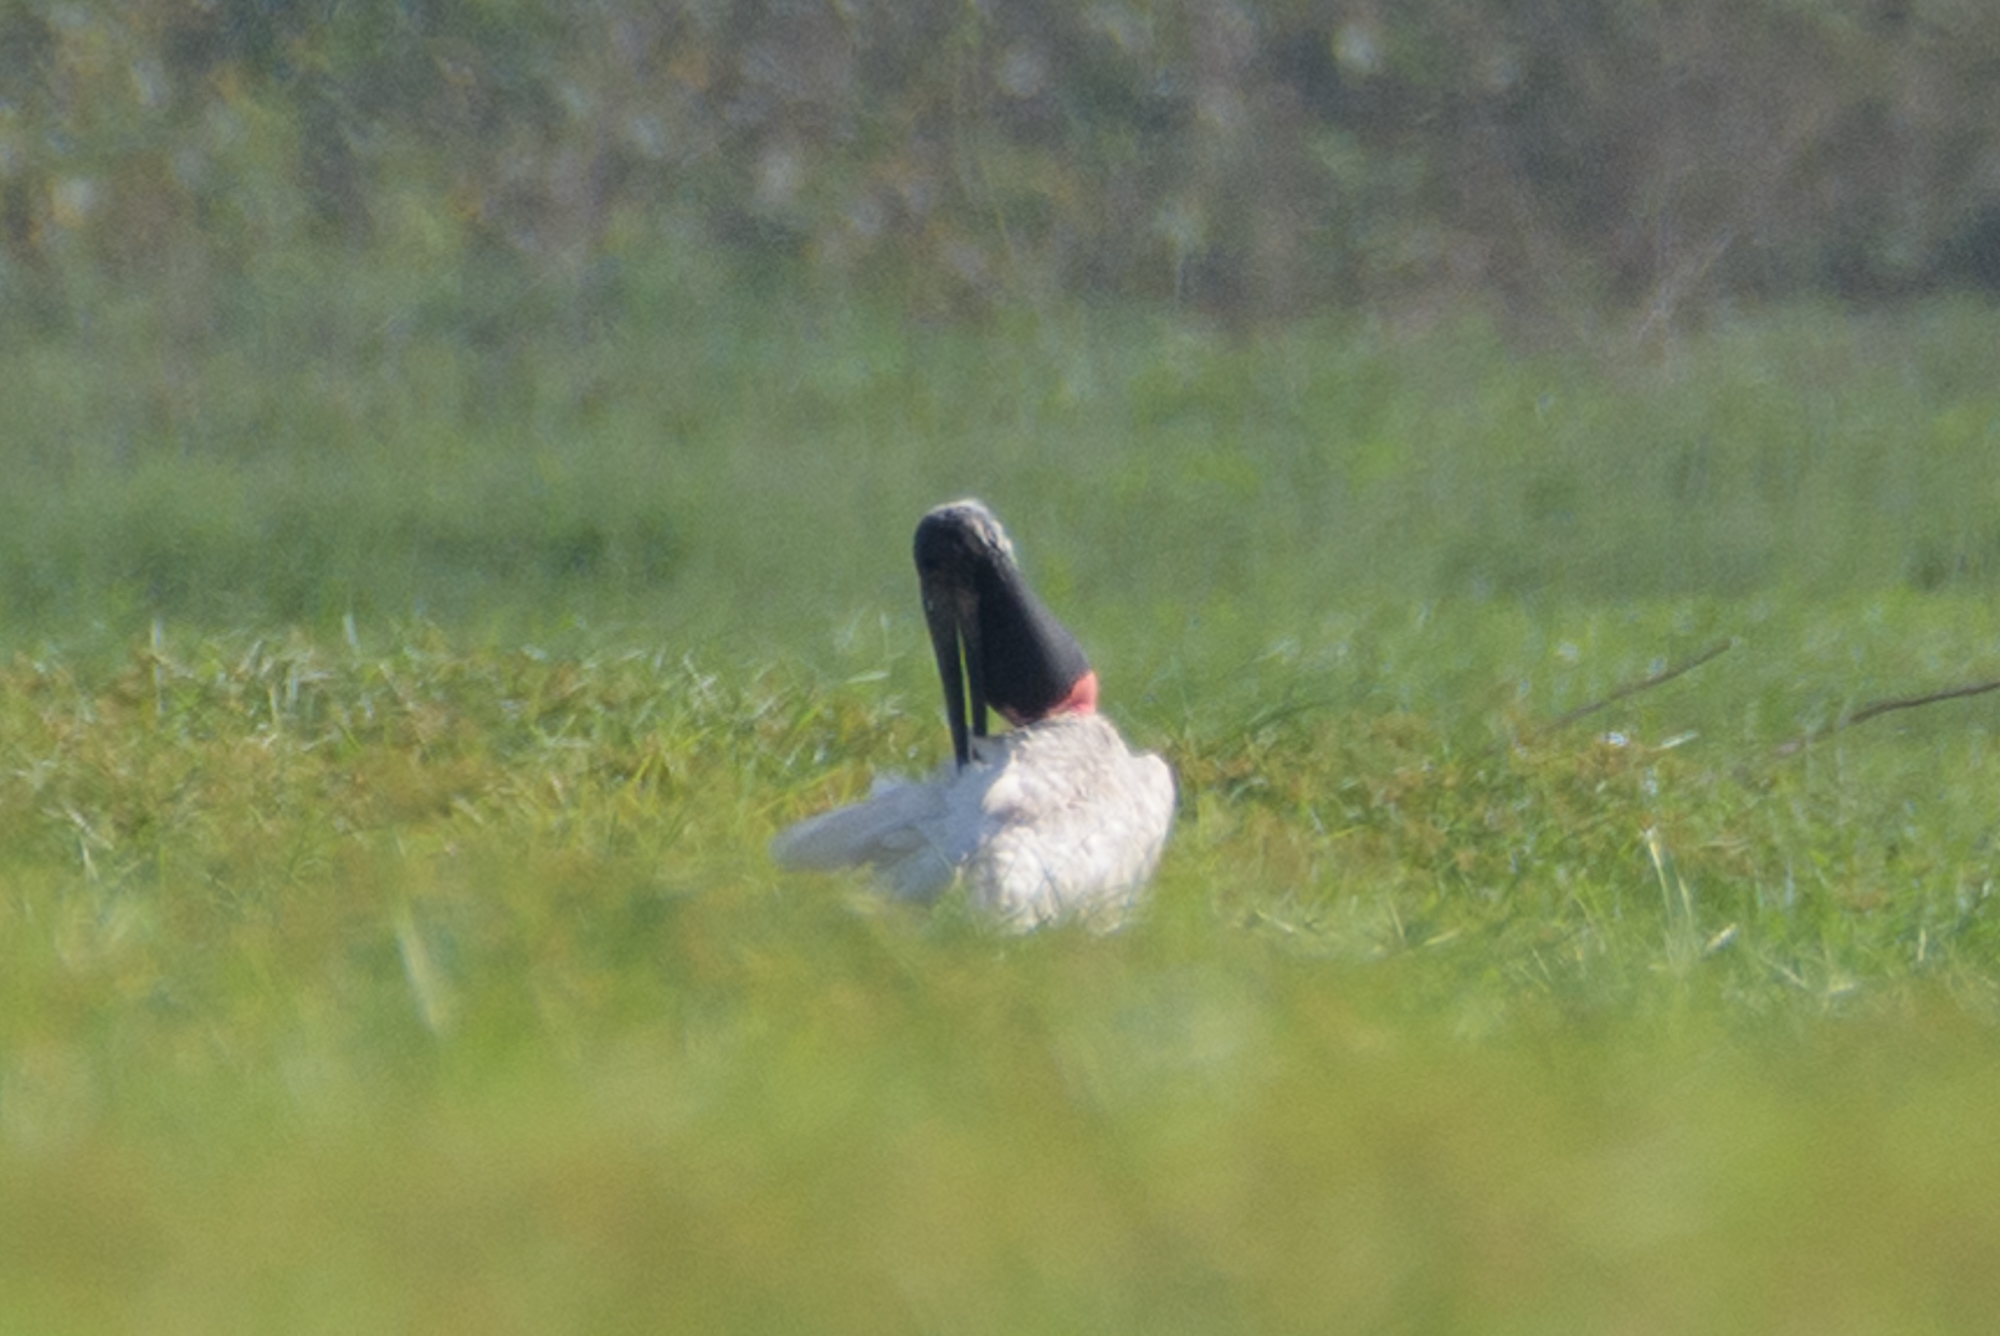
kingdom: Animalia
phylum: Chordata
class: Aves
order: Ciconiiformes
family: Ciconiidae
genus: Jabiru
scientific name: Jabiru mycteria
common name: Jabiru
